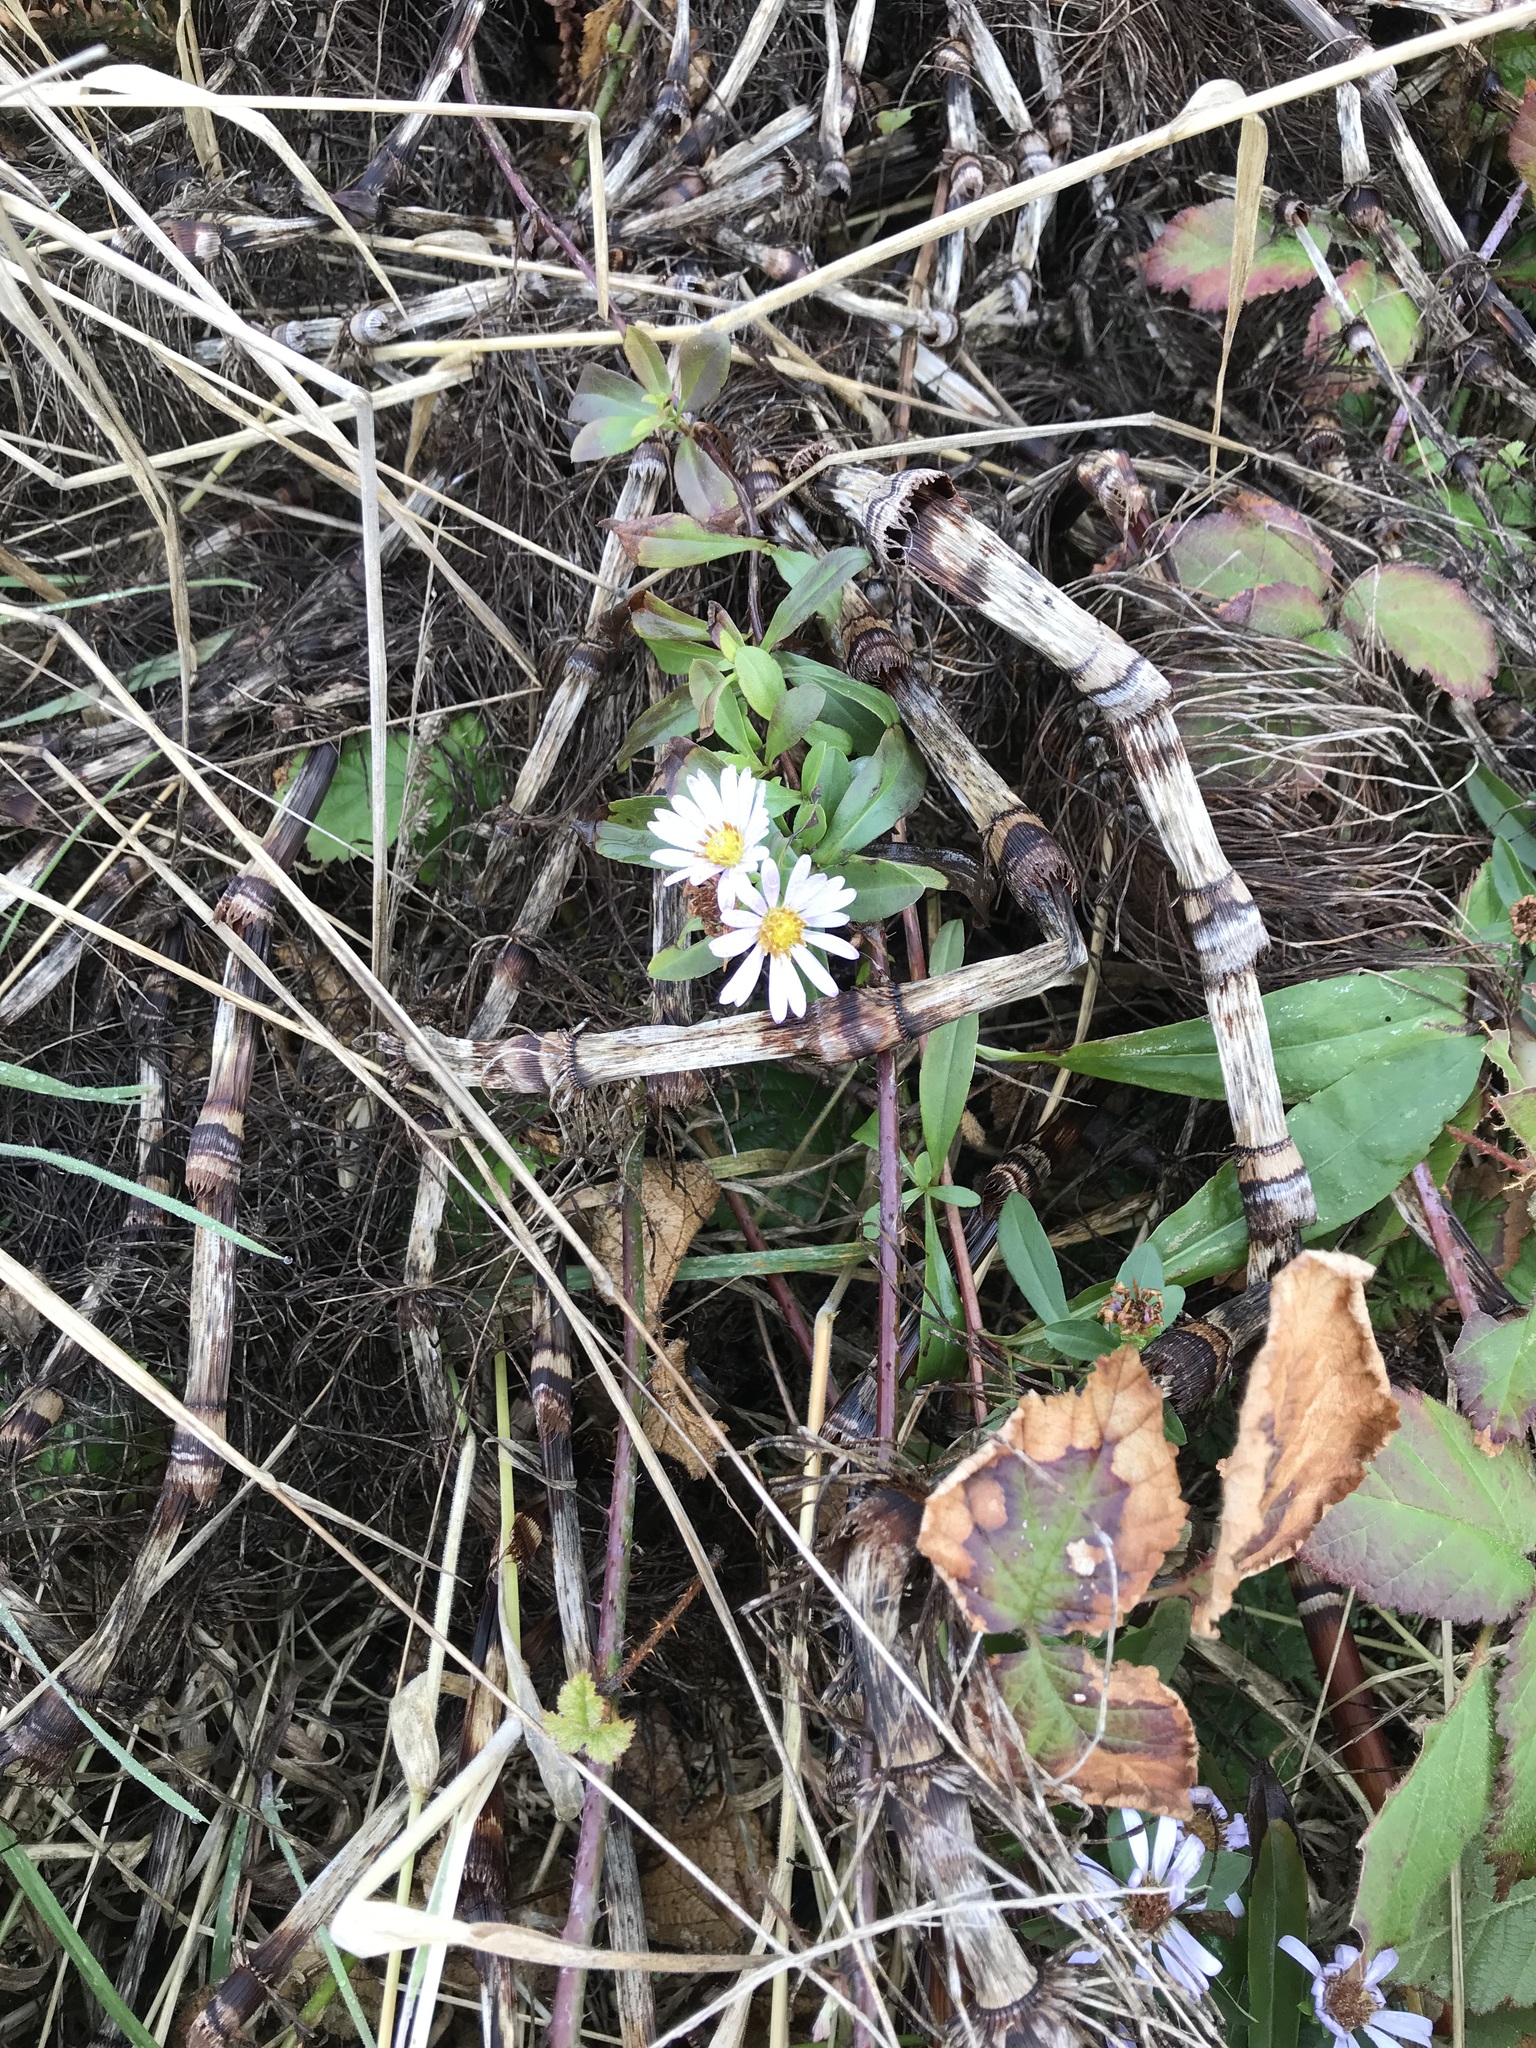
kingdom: Plantae
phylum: Tracheophyta
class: Magnoliopsida
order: Asterales
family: Asteraceae
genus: Symphyotrichum
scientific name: Symphyotrichum chilense
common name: Pacific aster
